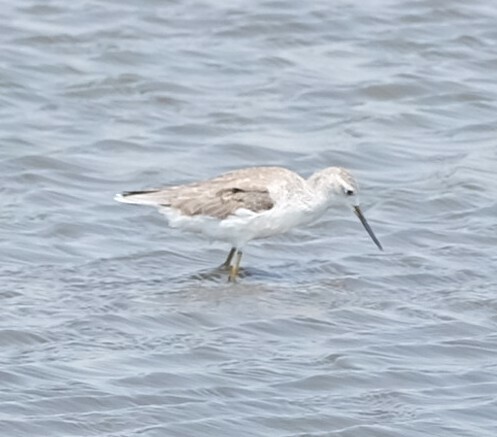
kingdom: Animalia
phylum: Chordata
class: Aves
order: Charadriiformes
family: Scolopacidae
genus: Tringa
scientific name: Tringa stagnatilis
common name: Marsh sandpiper
